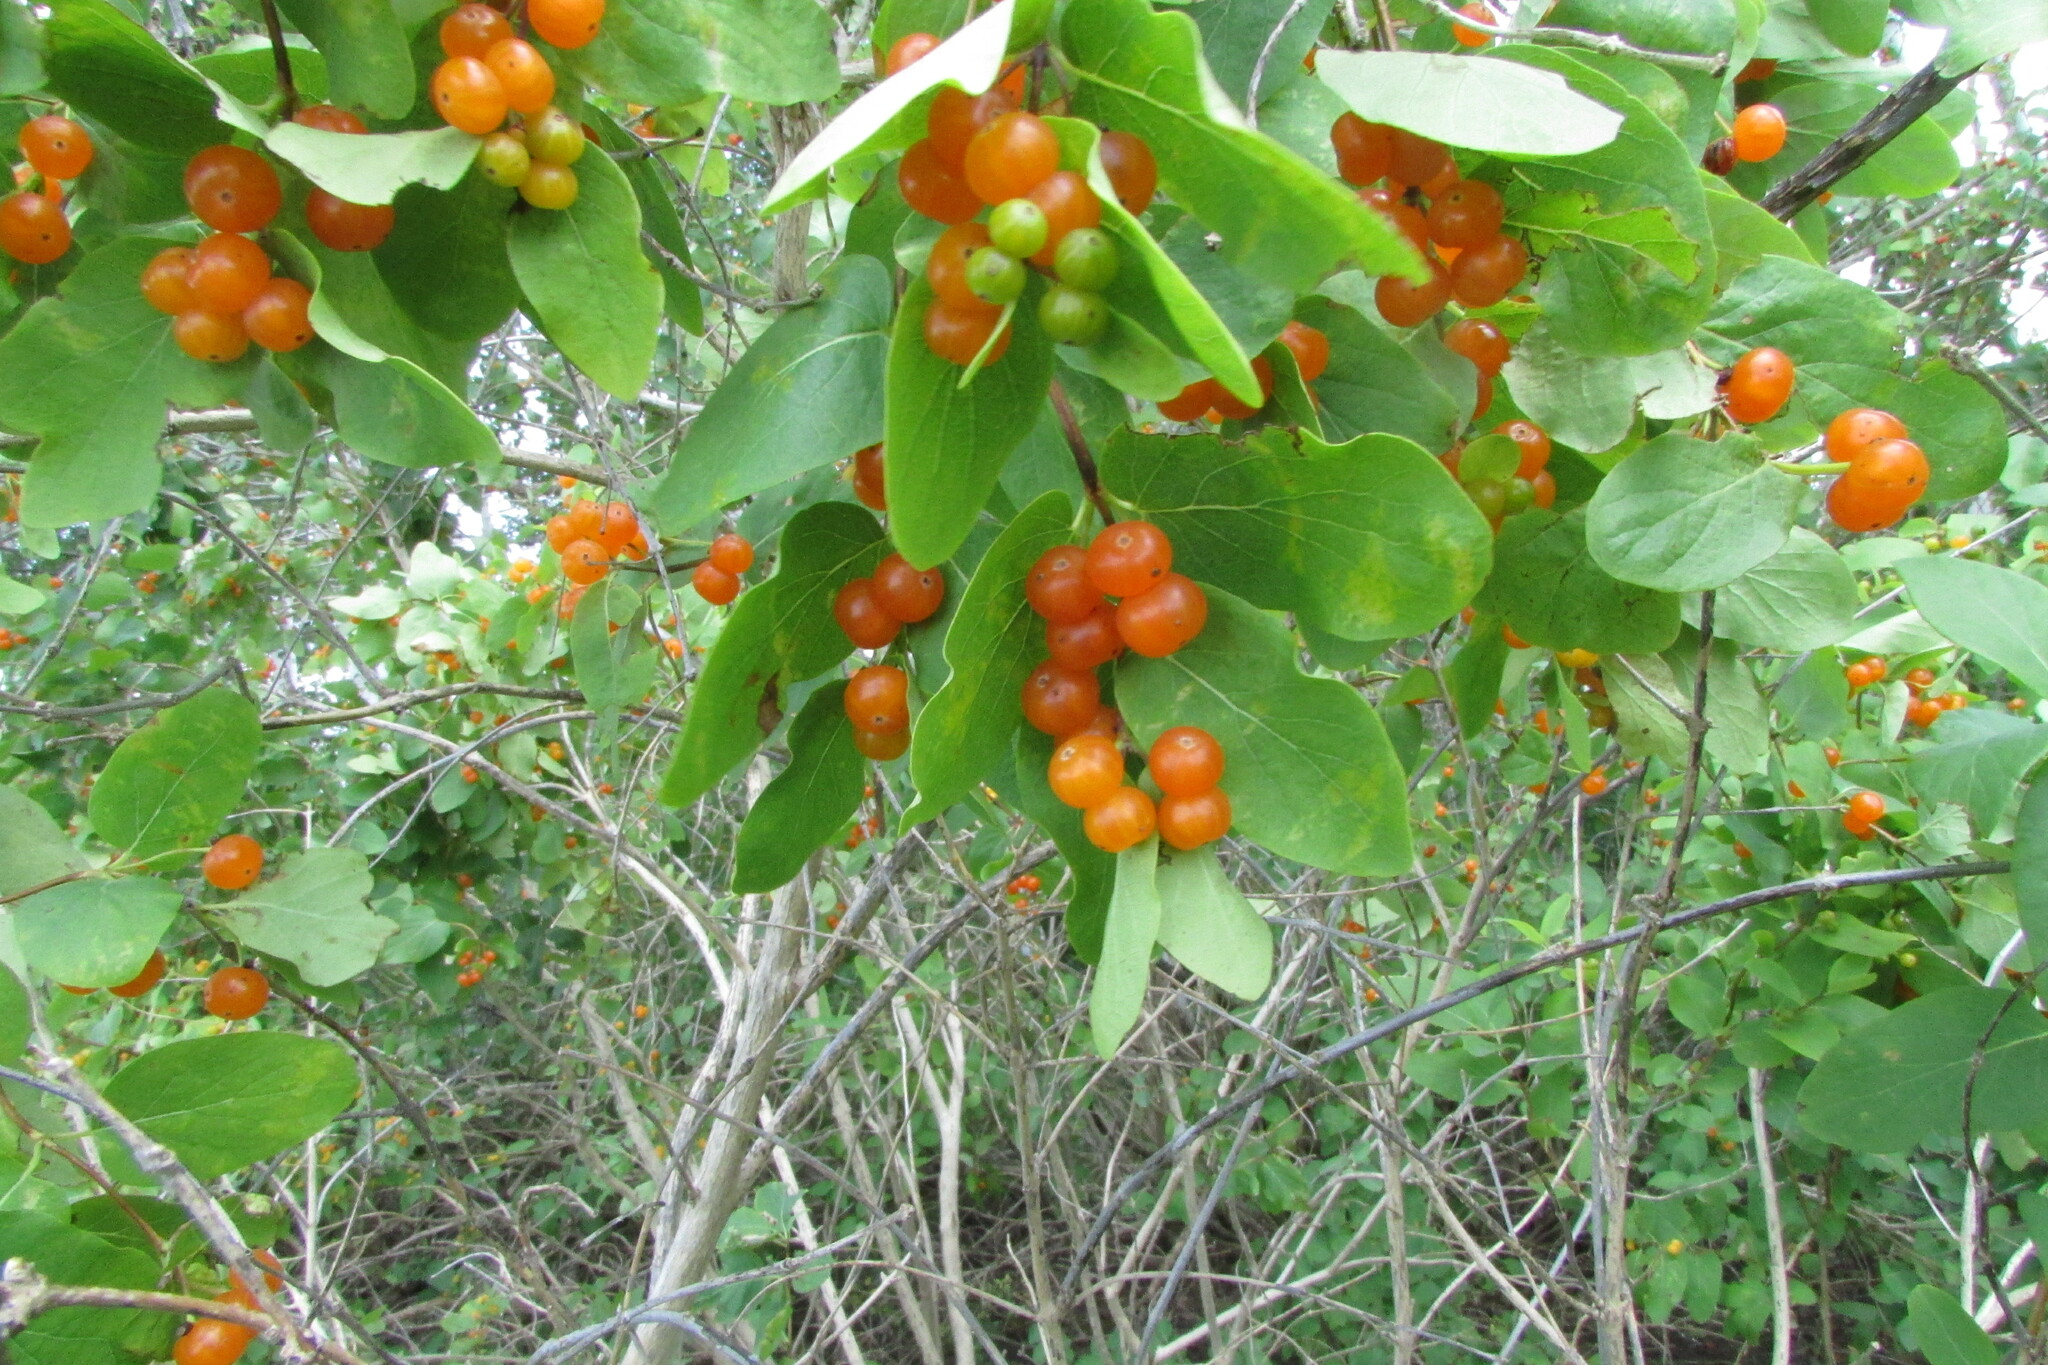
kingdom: Plantae
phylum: Tracheophyta
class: Magnoliopsida
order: Dipsacales
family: Caprifoliaceae
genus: Lonicera
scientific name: Lonicera tatarica
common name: Tatarian honeysuckle
